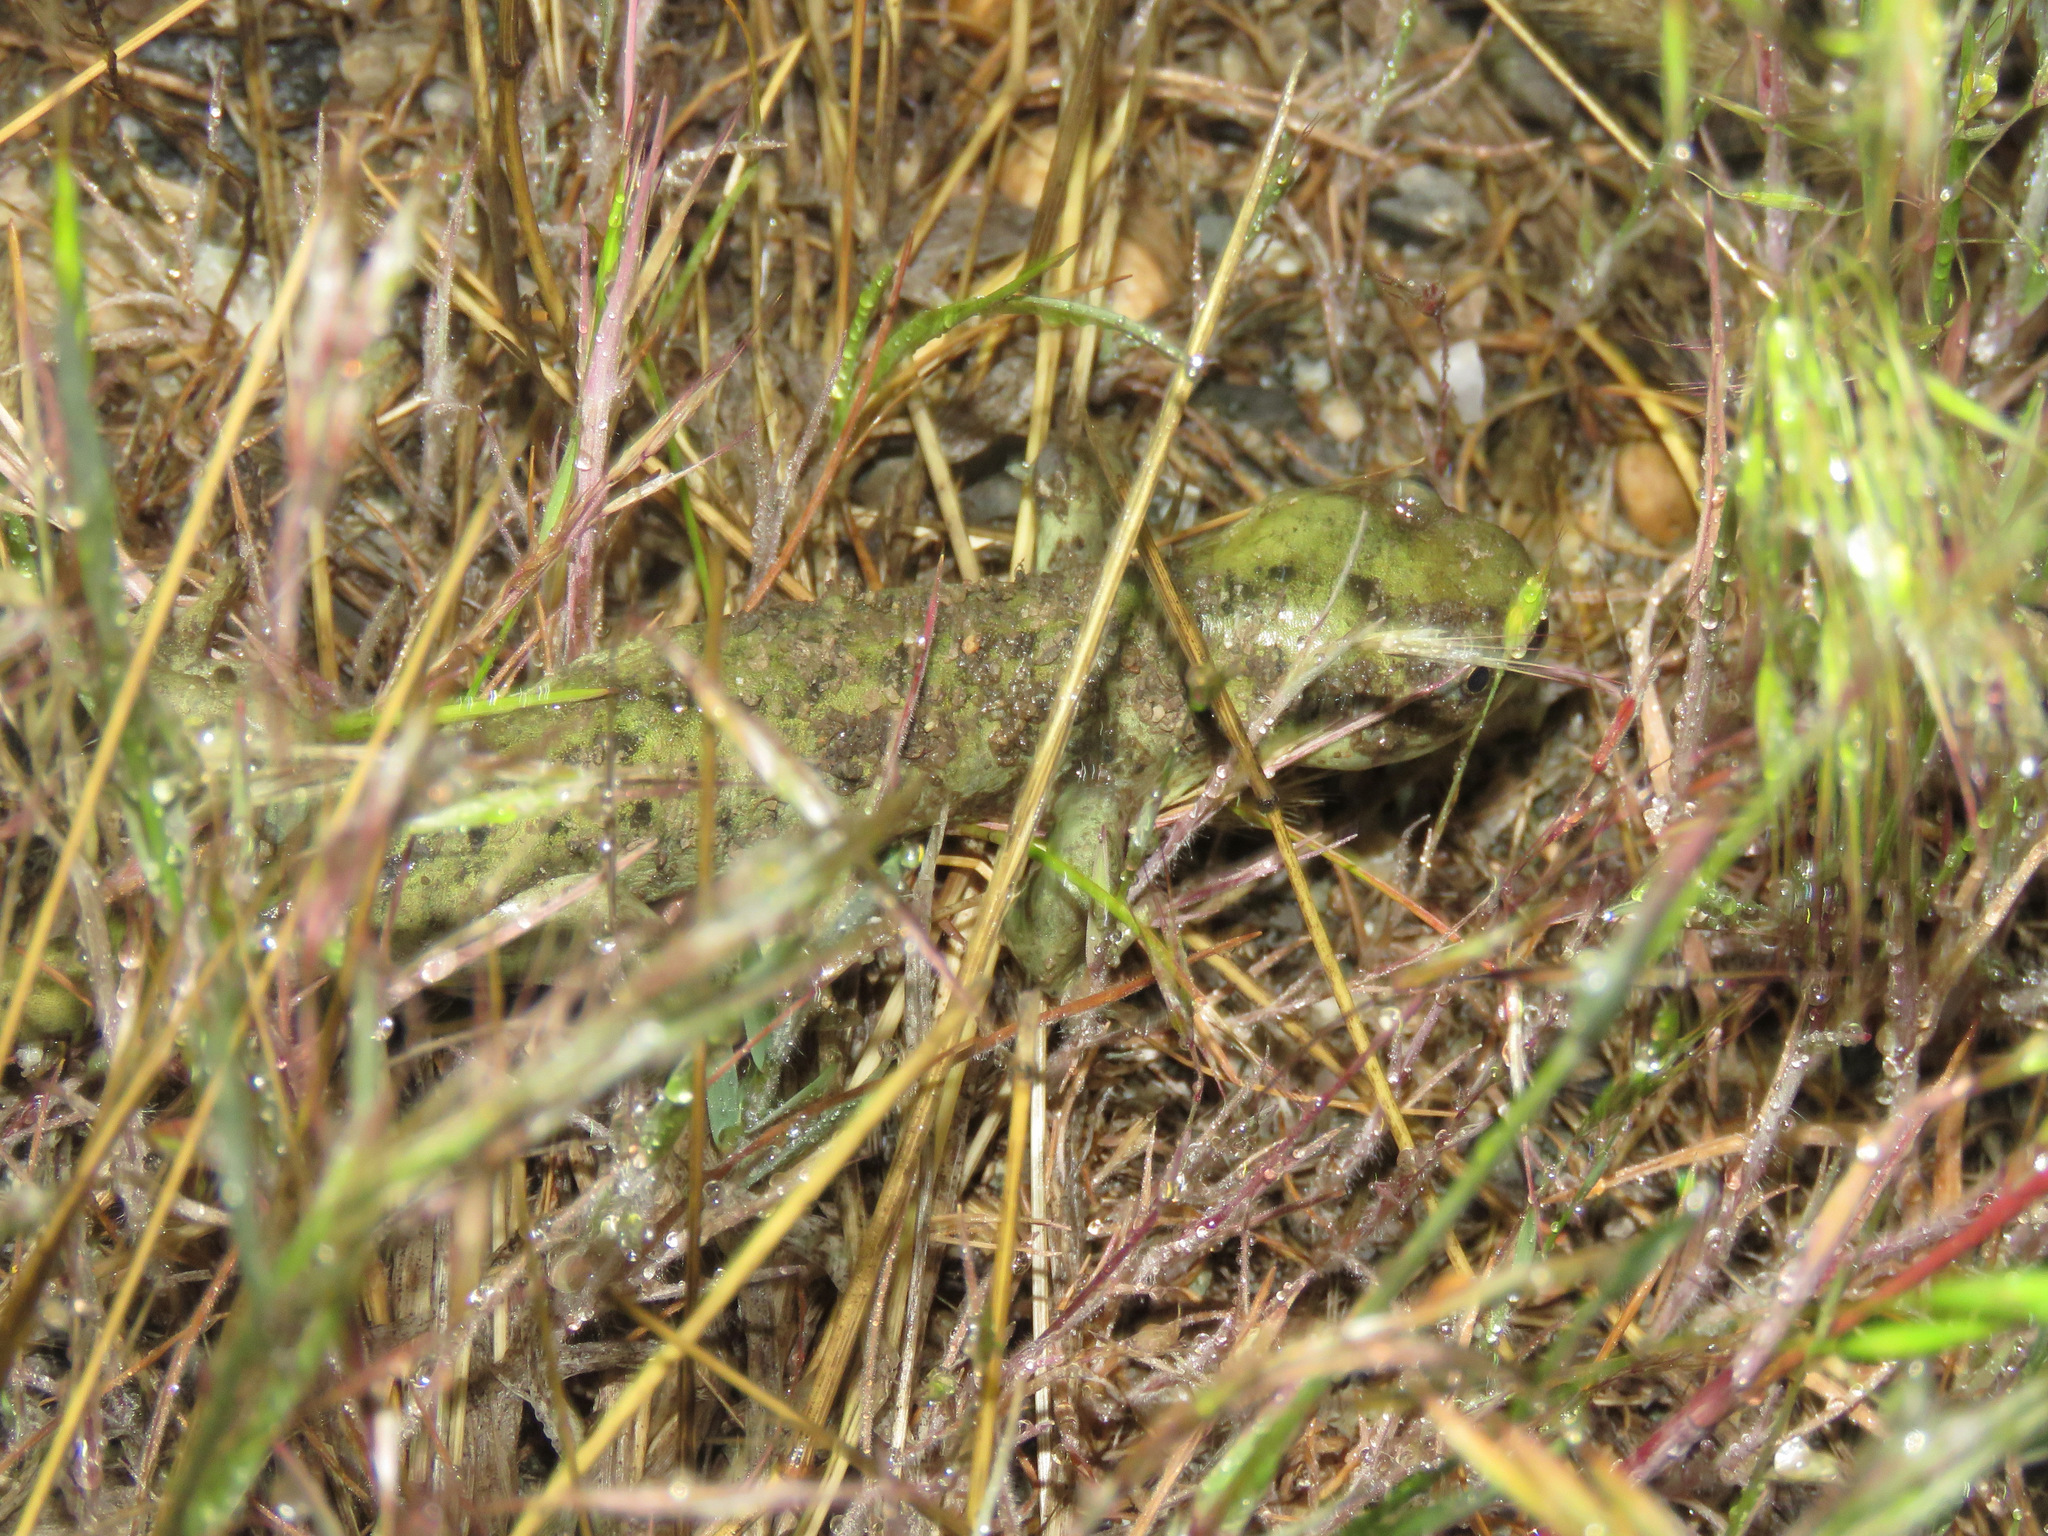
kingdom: Animalia
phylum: Chordata
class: Amphibia
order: Caudata
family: Ambystomatidae
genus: Ambystoma
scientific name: Ambystoma mavortium
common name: Western tiger salamander
